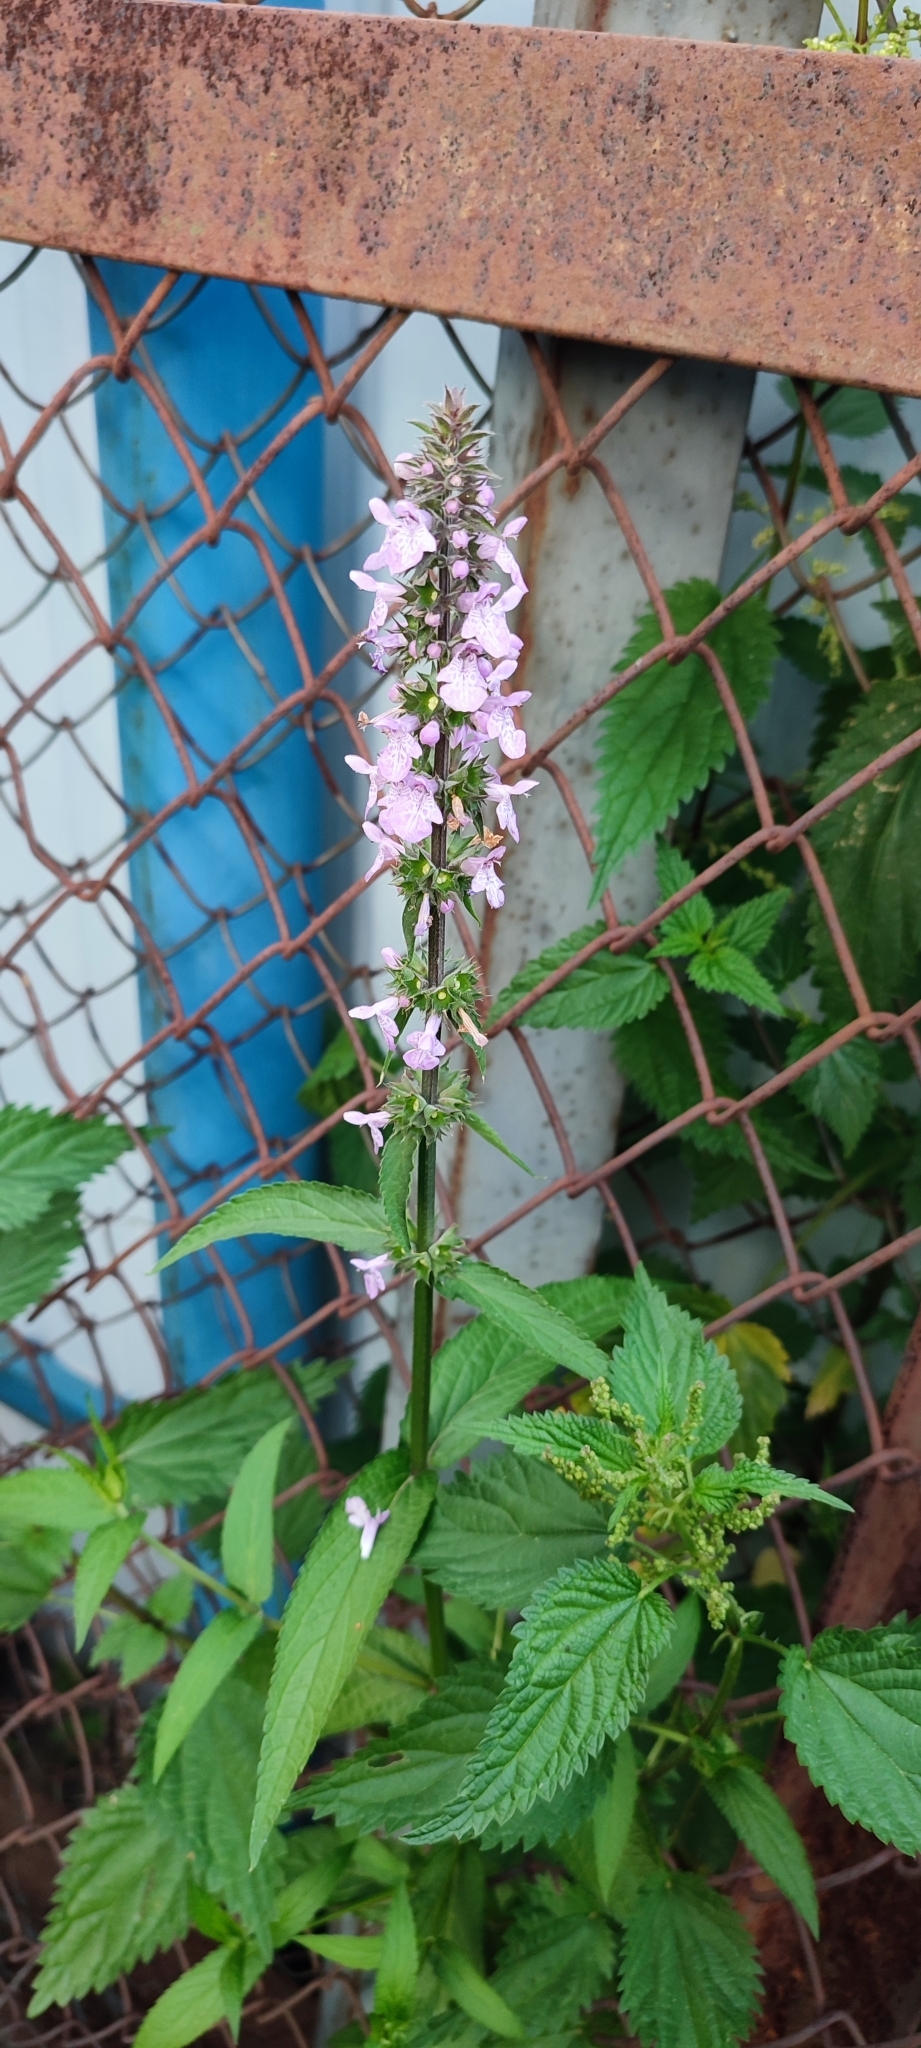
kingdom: Plantae
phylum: Tracheophyta
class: Magnoliopsida
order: Lamiales
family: Lamiaceae
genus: Stachys
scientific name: Stachys palustris
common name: Marsh woundwort
